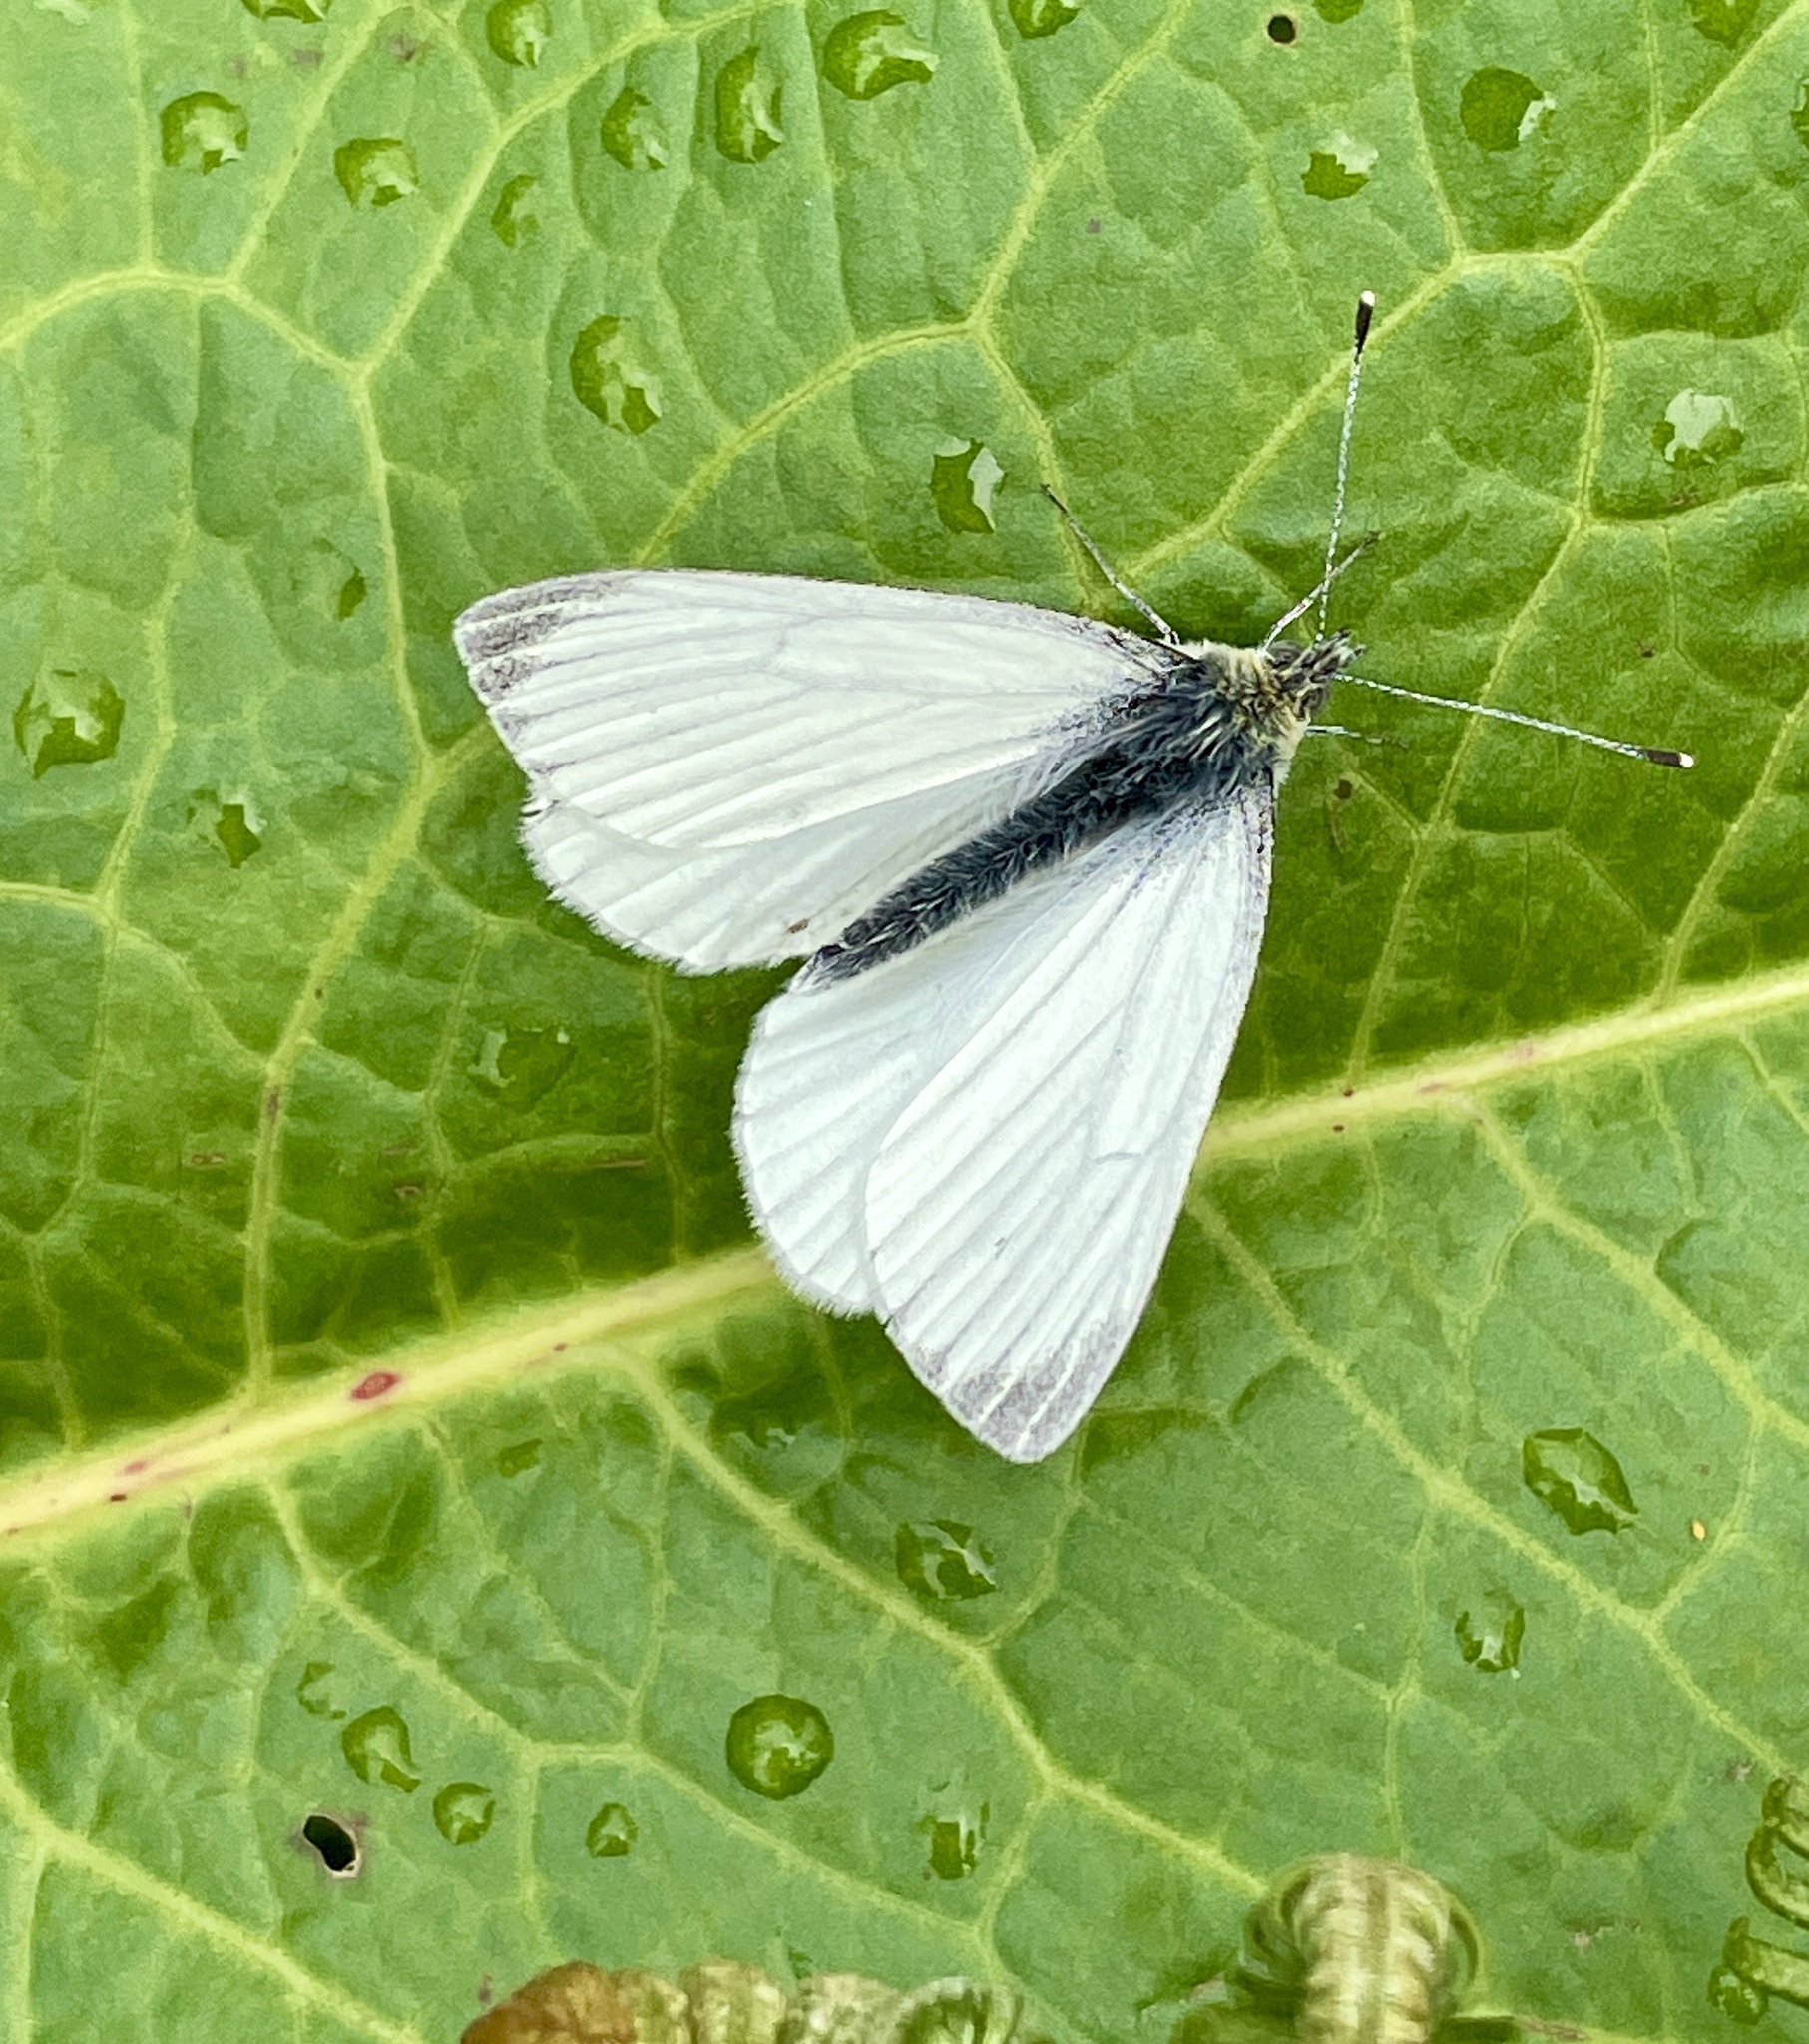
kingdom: Animalia
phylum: Arthropoda
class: Insecta
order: Lepidoptera
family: Pieridae
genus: Pieris
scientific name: Pieris napi
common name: Green-veined white
